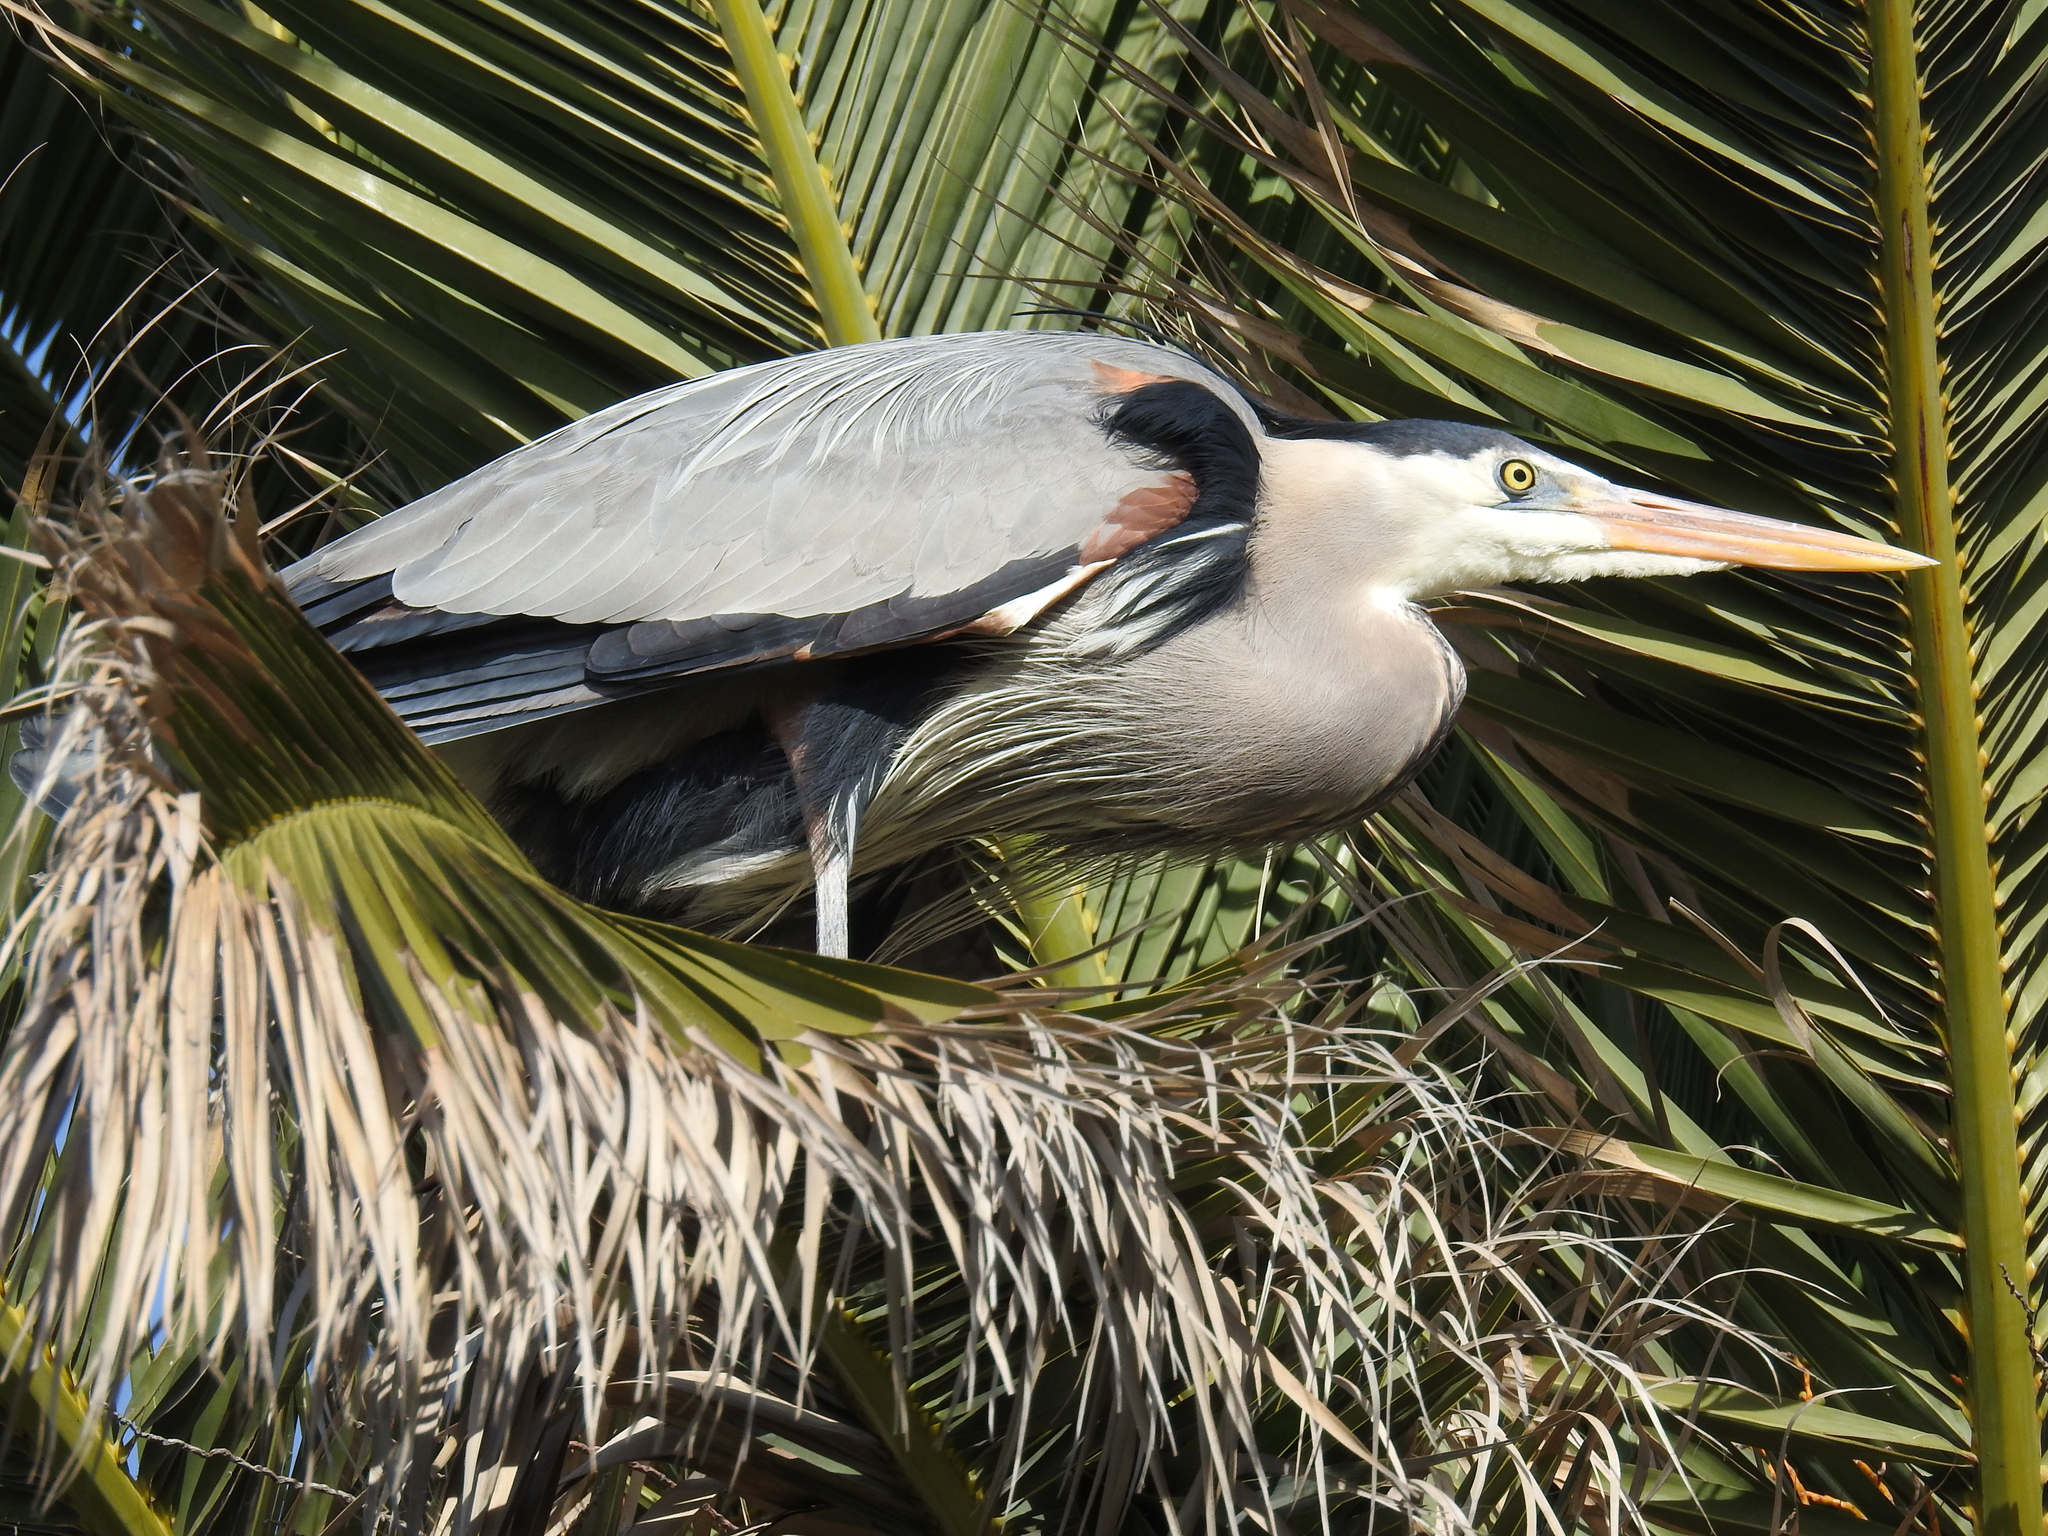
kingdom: Animalia
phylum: Chordata
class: Aves
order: Pelecaniformes
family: Ardeidae
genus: Ardea
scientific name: Ardea herodias
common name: Great blue heron
